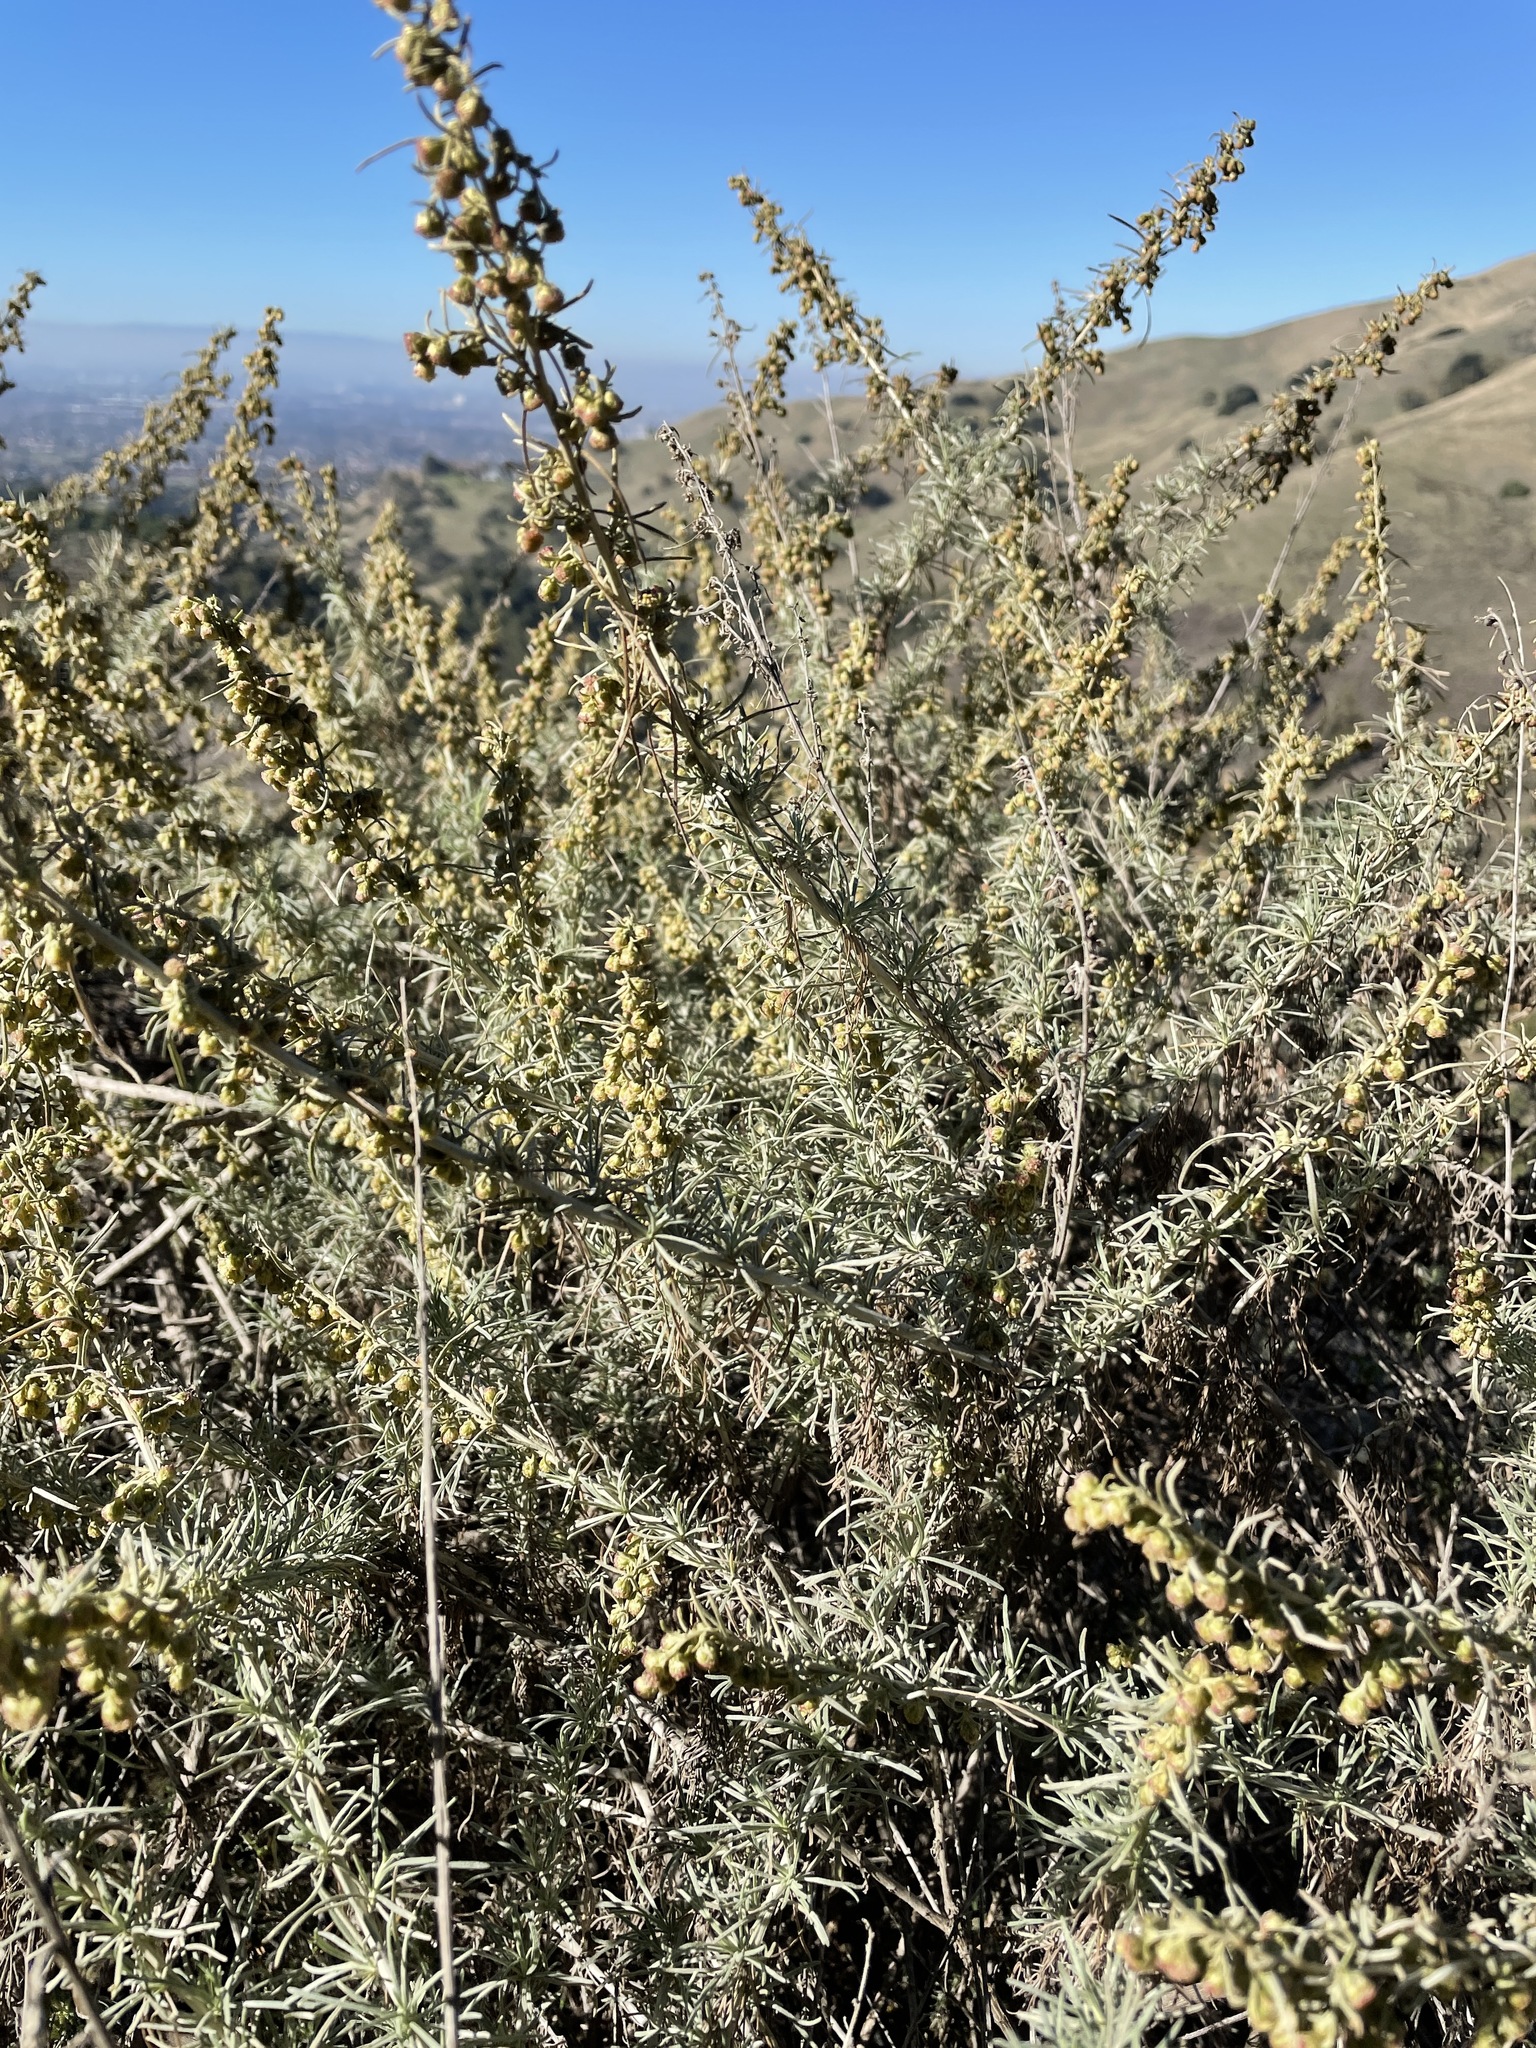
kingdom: Plantae
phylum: Tracheophyta
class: Magnoliopsida
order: Asterales
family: Asteraceae
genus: Artemisia
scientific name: Artemisia californica
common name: California sagebrush
